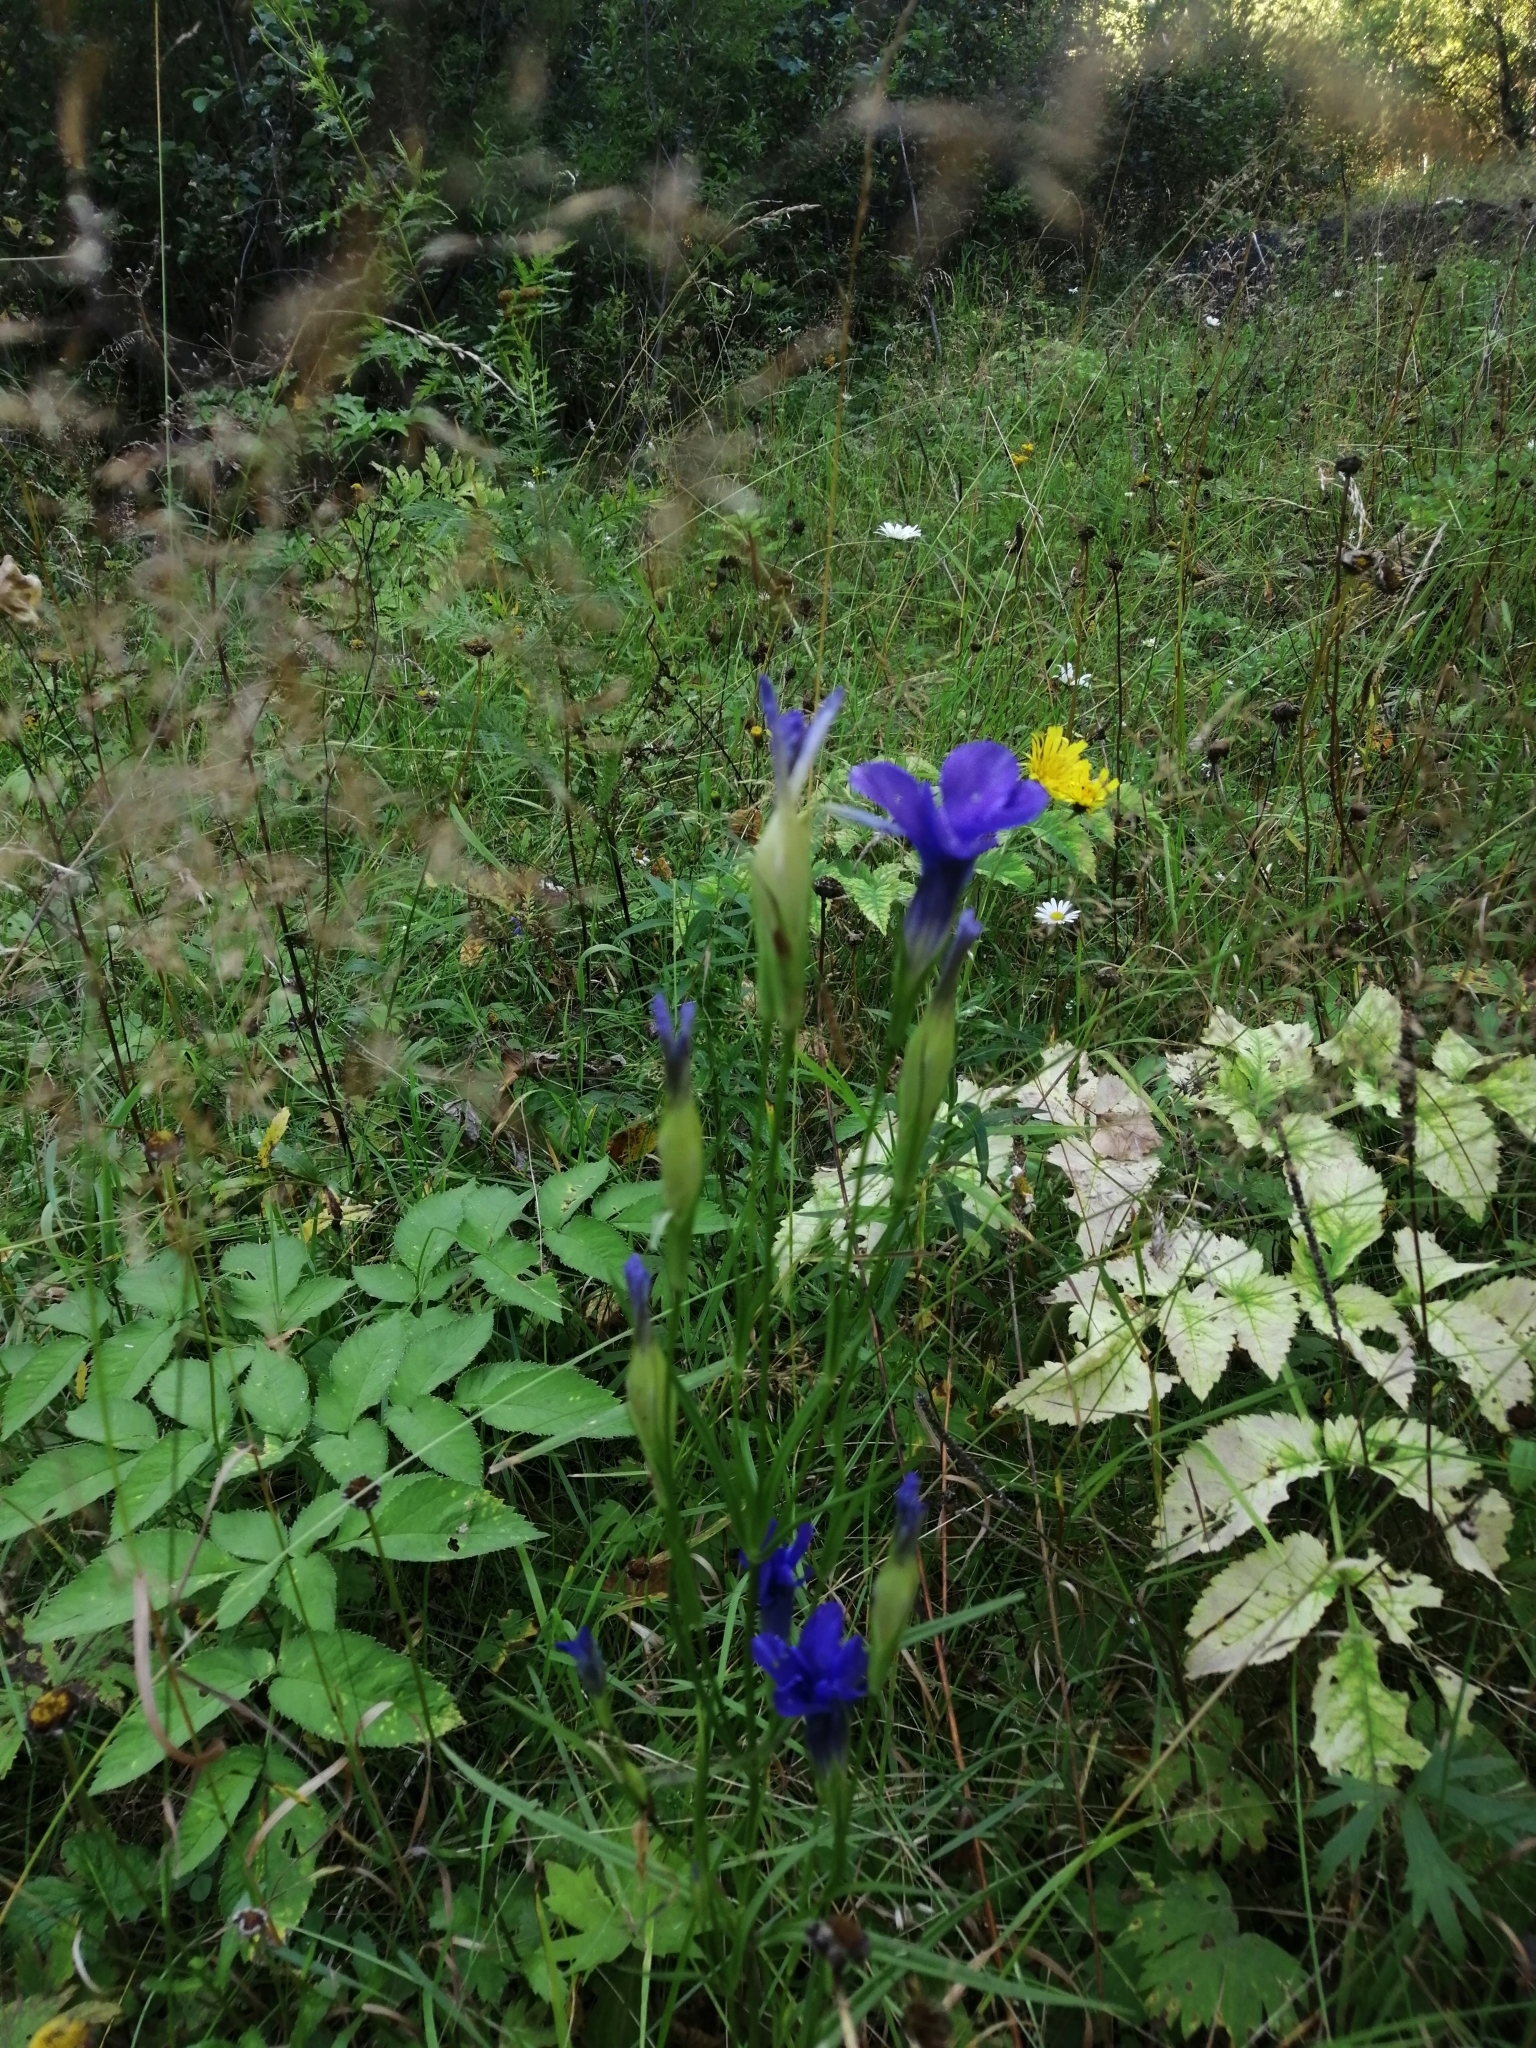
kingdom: Plantae
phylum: Tracheophyta
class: Magnoliopsida
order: Gentianales
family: Gentianaceae
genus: Gentianopsis
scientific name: Gentianopsis barbata
